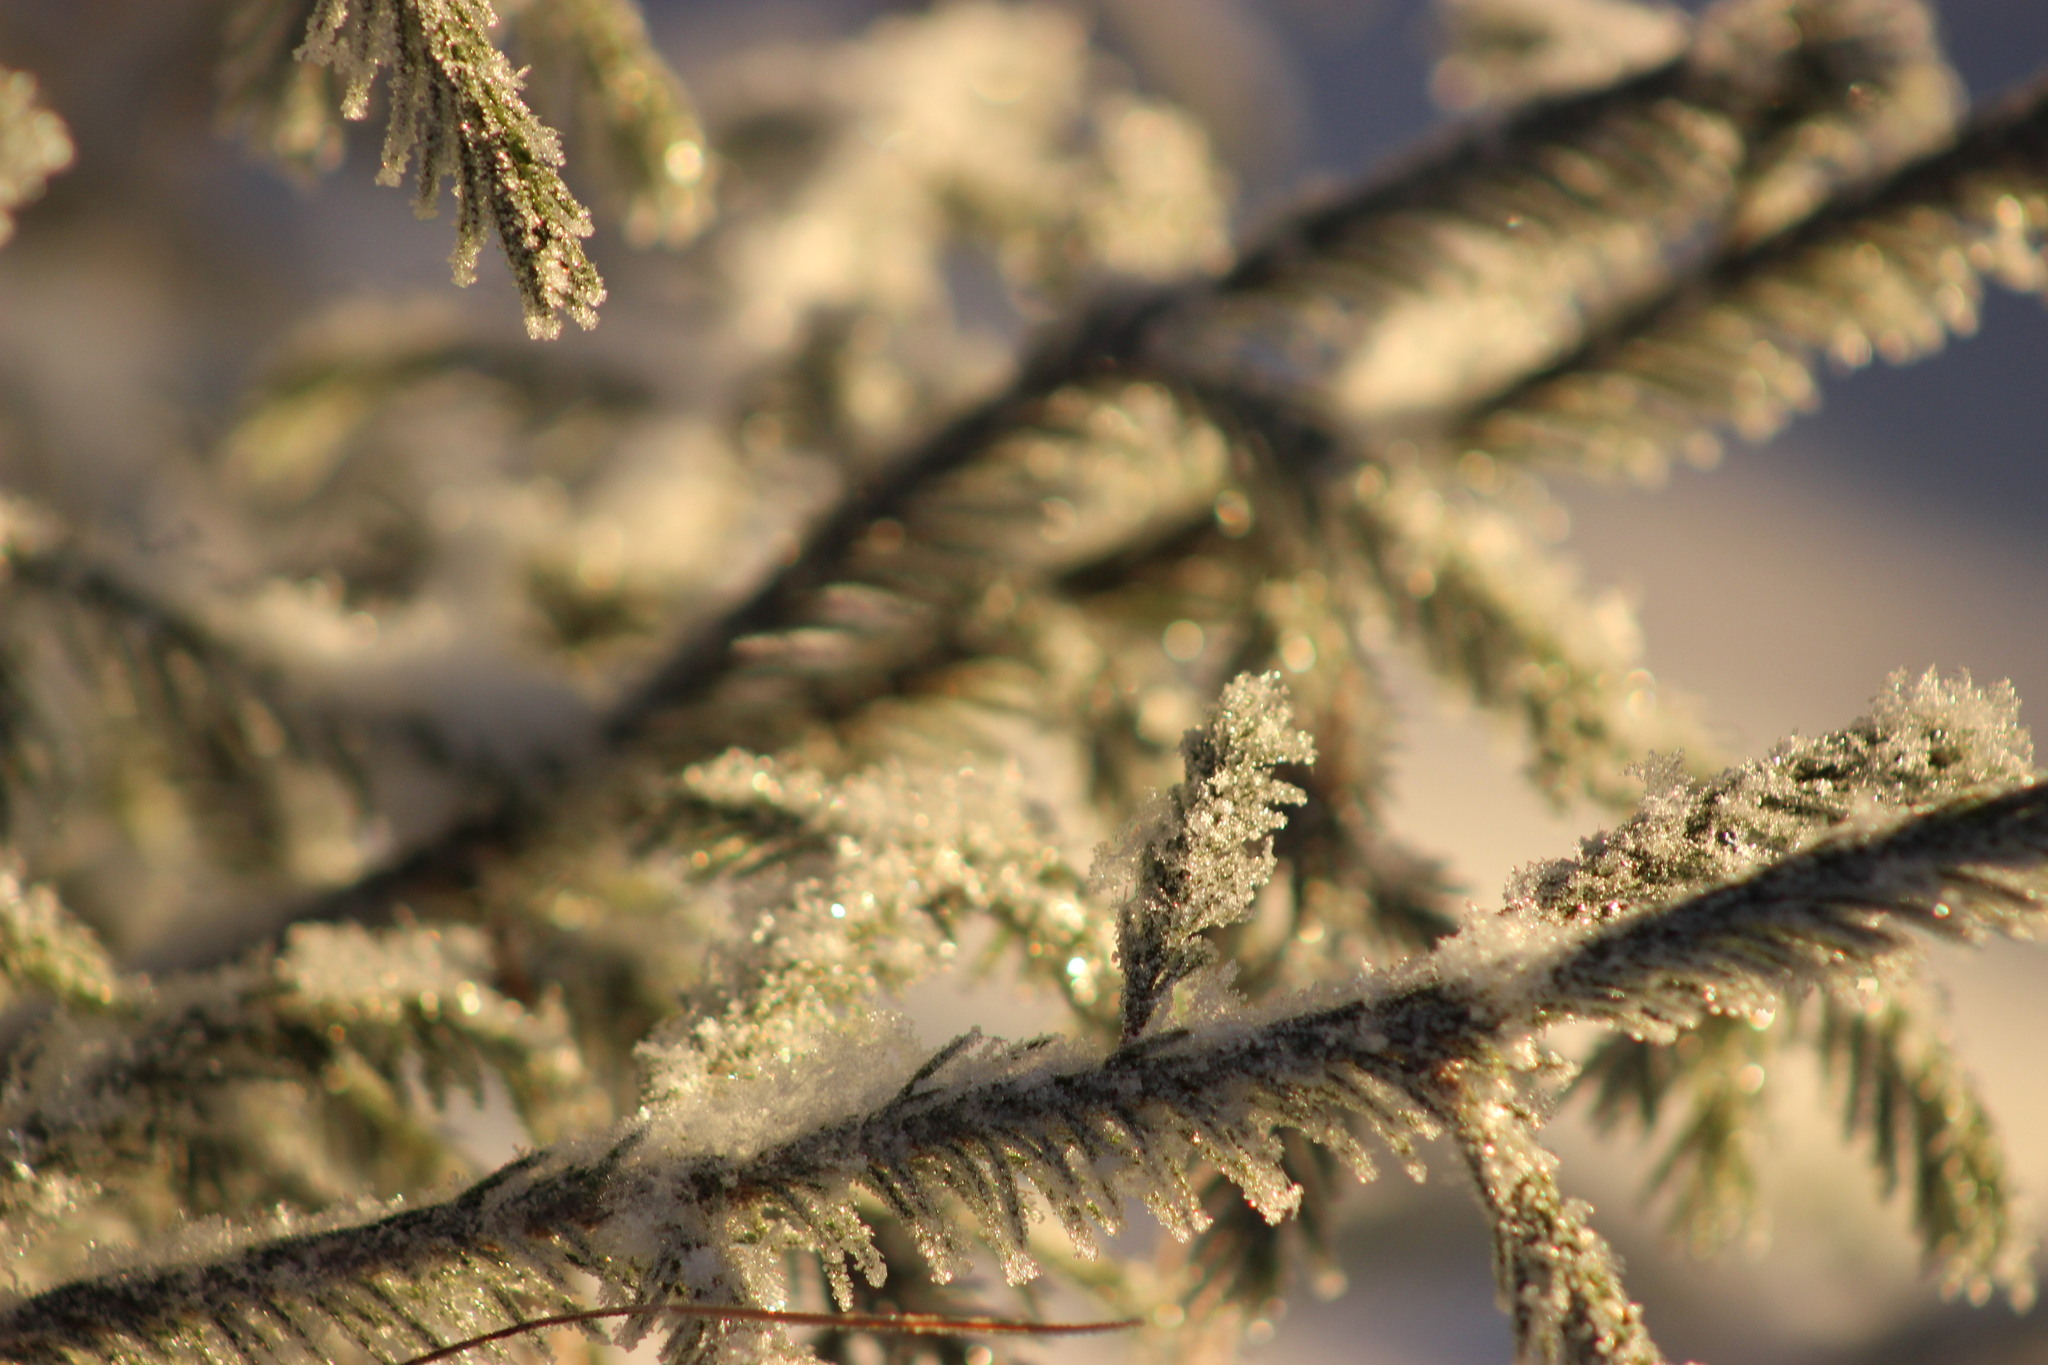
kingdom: Plantae
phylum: Tracheophyta
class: Pinopsida
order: Pinales
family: Pinaceae
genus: Picea
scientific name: Picea obovata
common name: Siberian spruce
